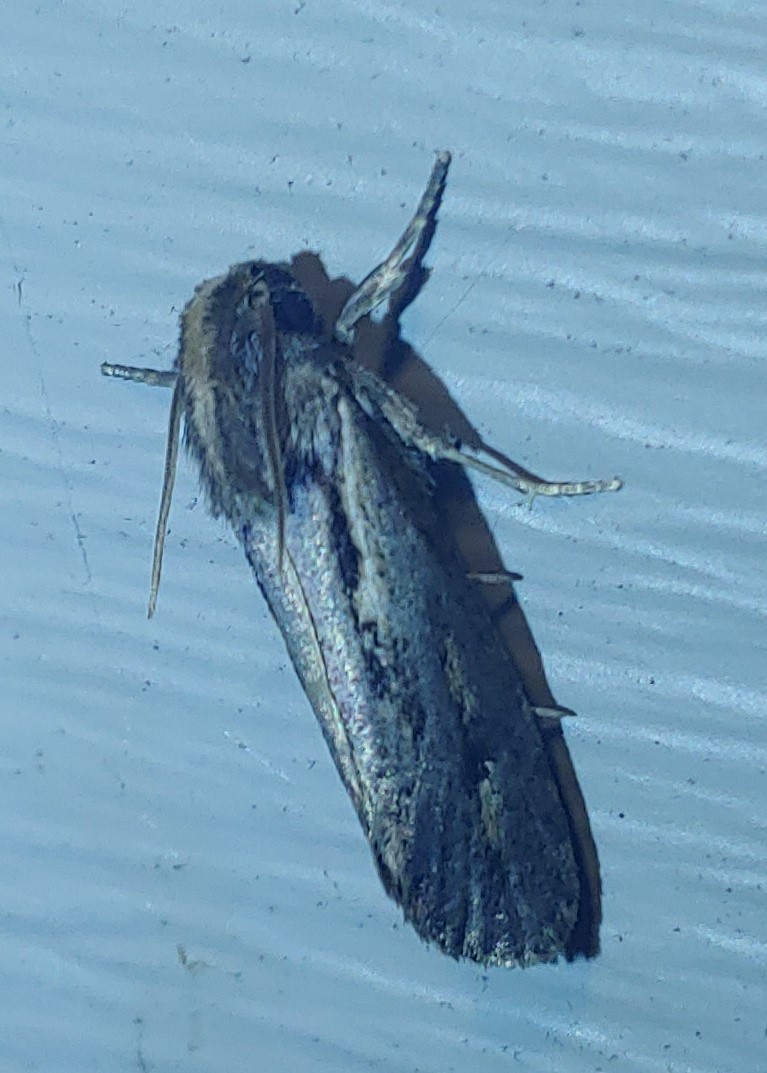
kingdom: Animalia
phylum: Arthropoda
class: Insecta
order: Lepidoptera
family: Tineidae
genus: Acrolophus
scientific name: Acrolophus popeanella
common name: Clemens' grass tubeworm moth
